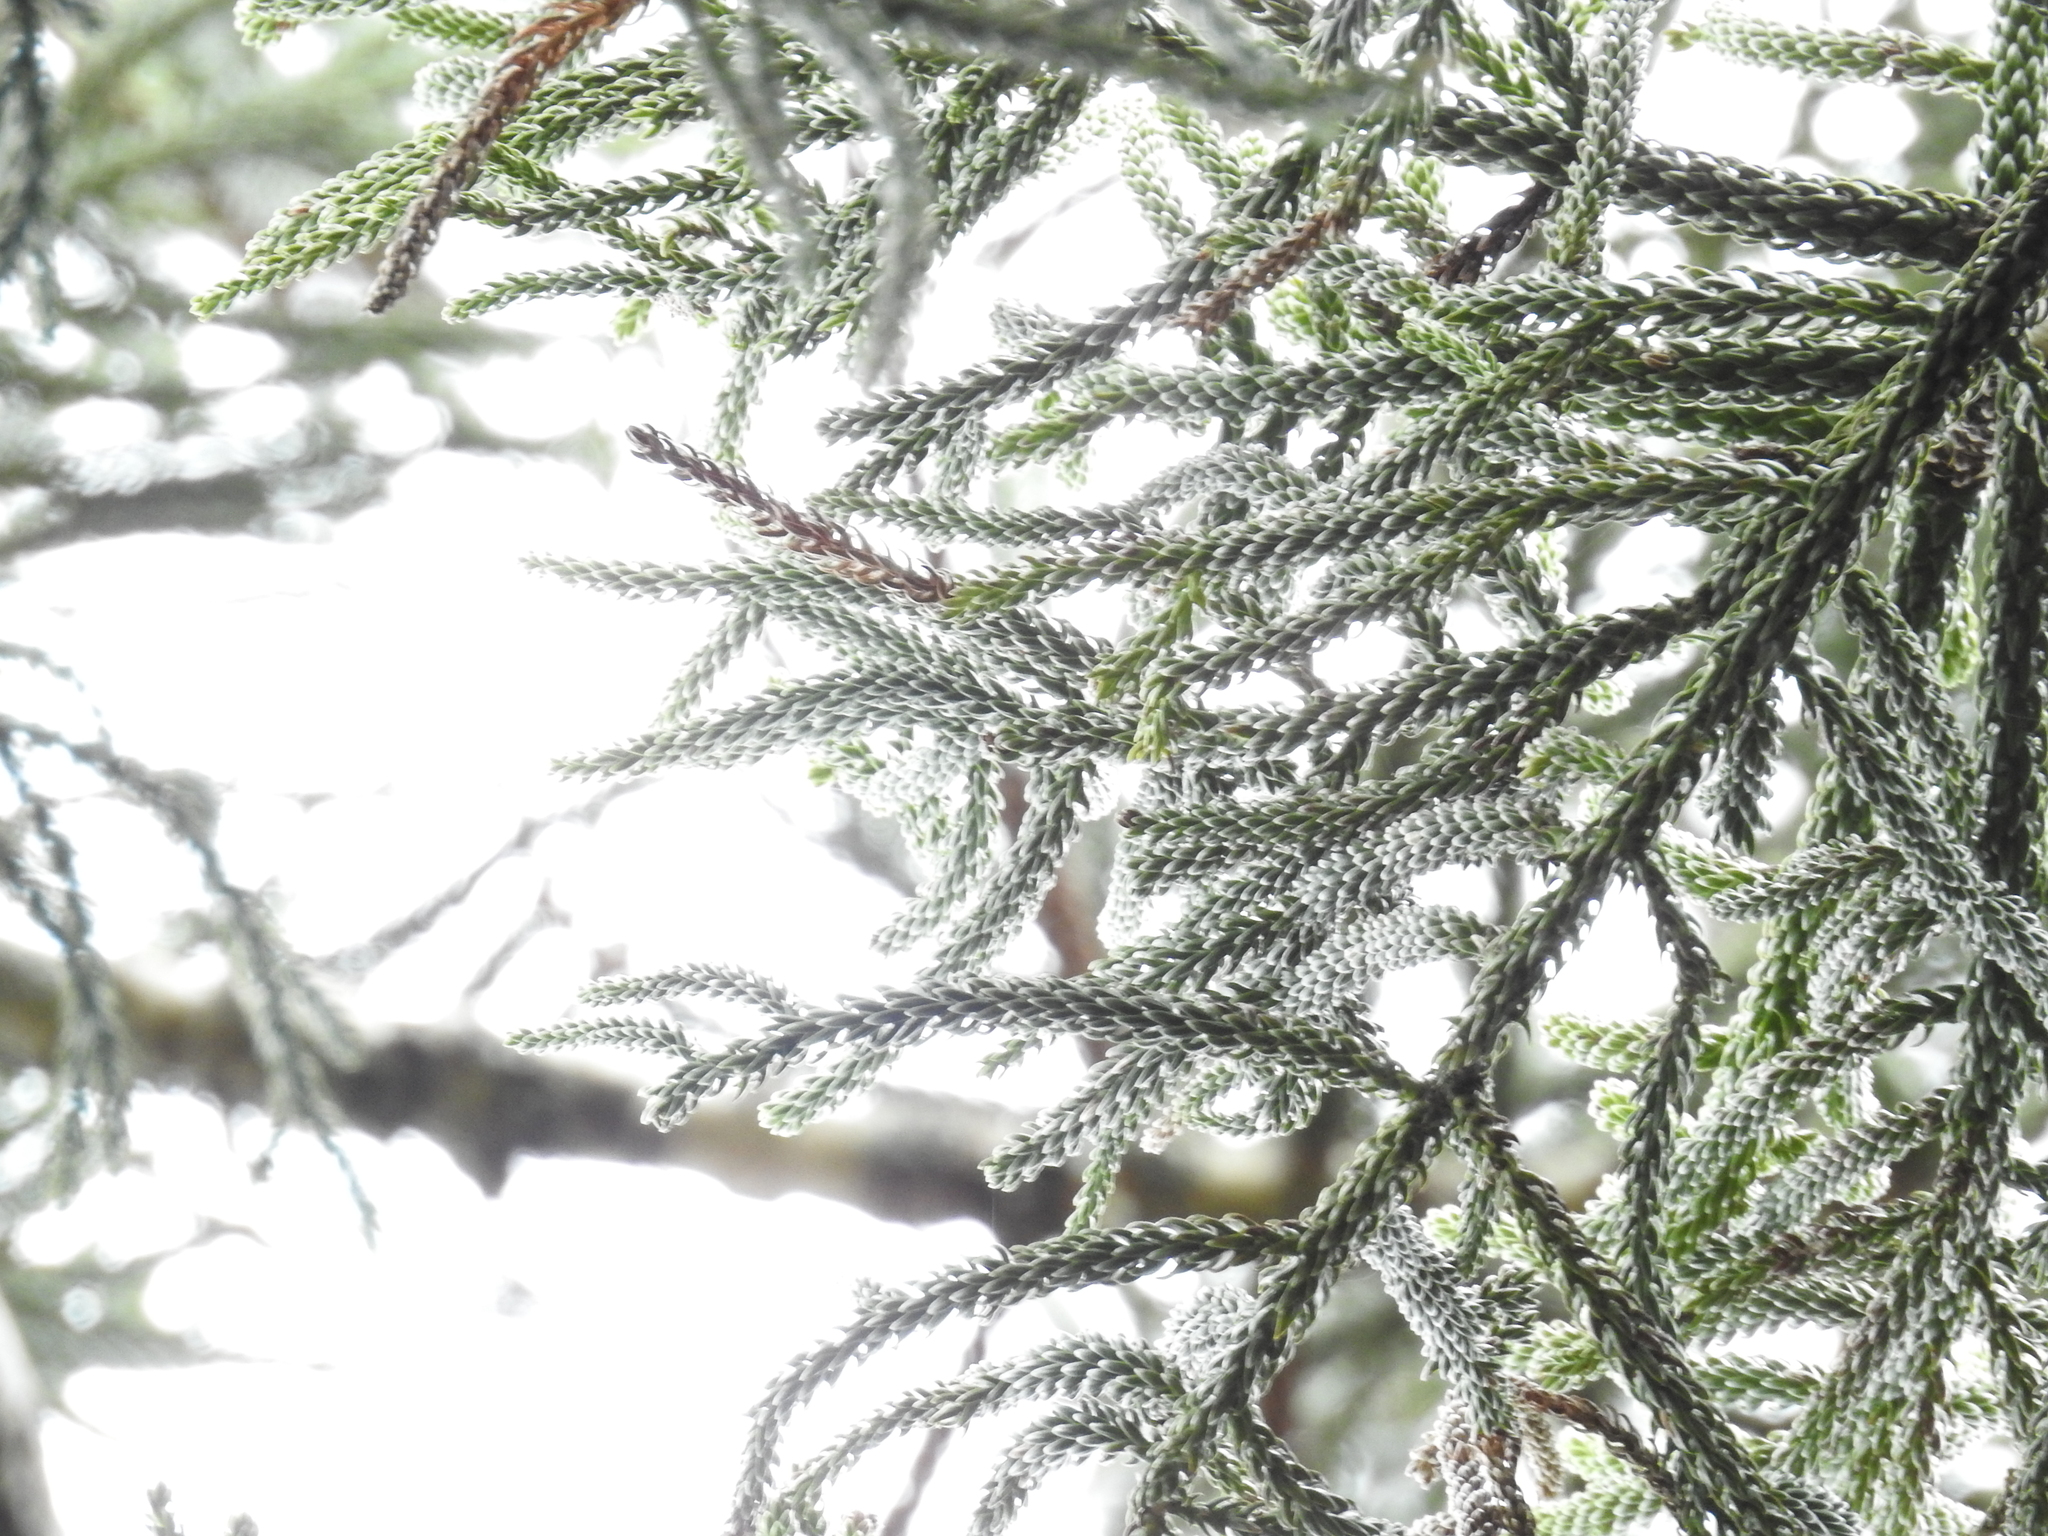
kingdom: Plantae
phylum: Tracheophyta
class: Pinopsida
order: Pinales
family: Araucariaceae
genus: Araucaria
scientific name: Araucaria cunninghamii
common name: Colonial pine
